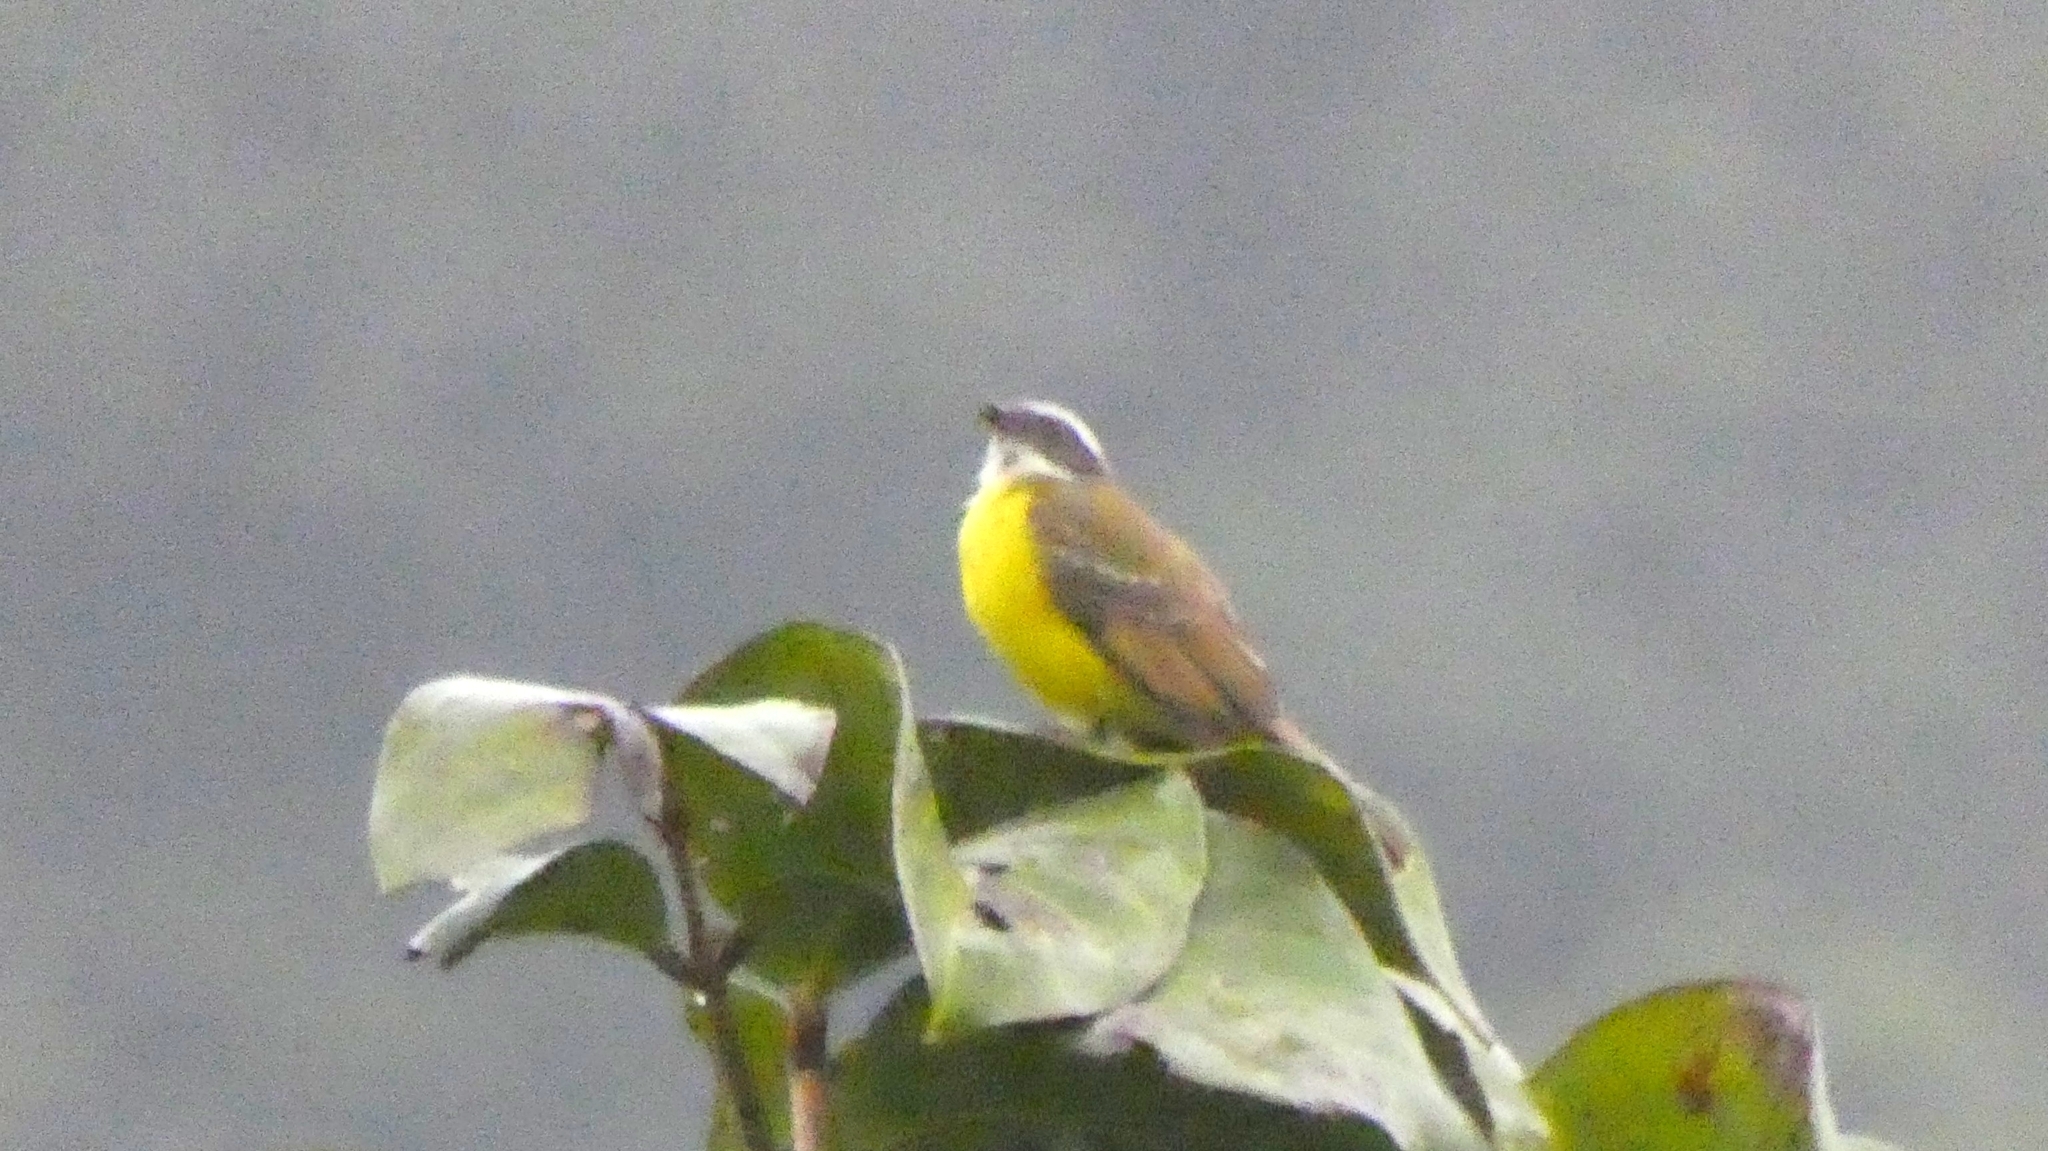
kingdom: Animalia
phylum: Chordata
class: Aves
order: Passeriformes
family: Tyrannidae
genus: Myiozetetes
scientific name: Myiozetetes similis
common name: Social flycatcher
